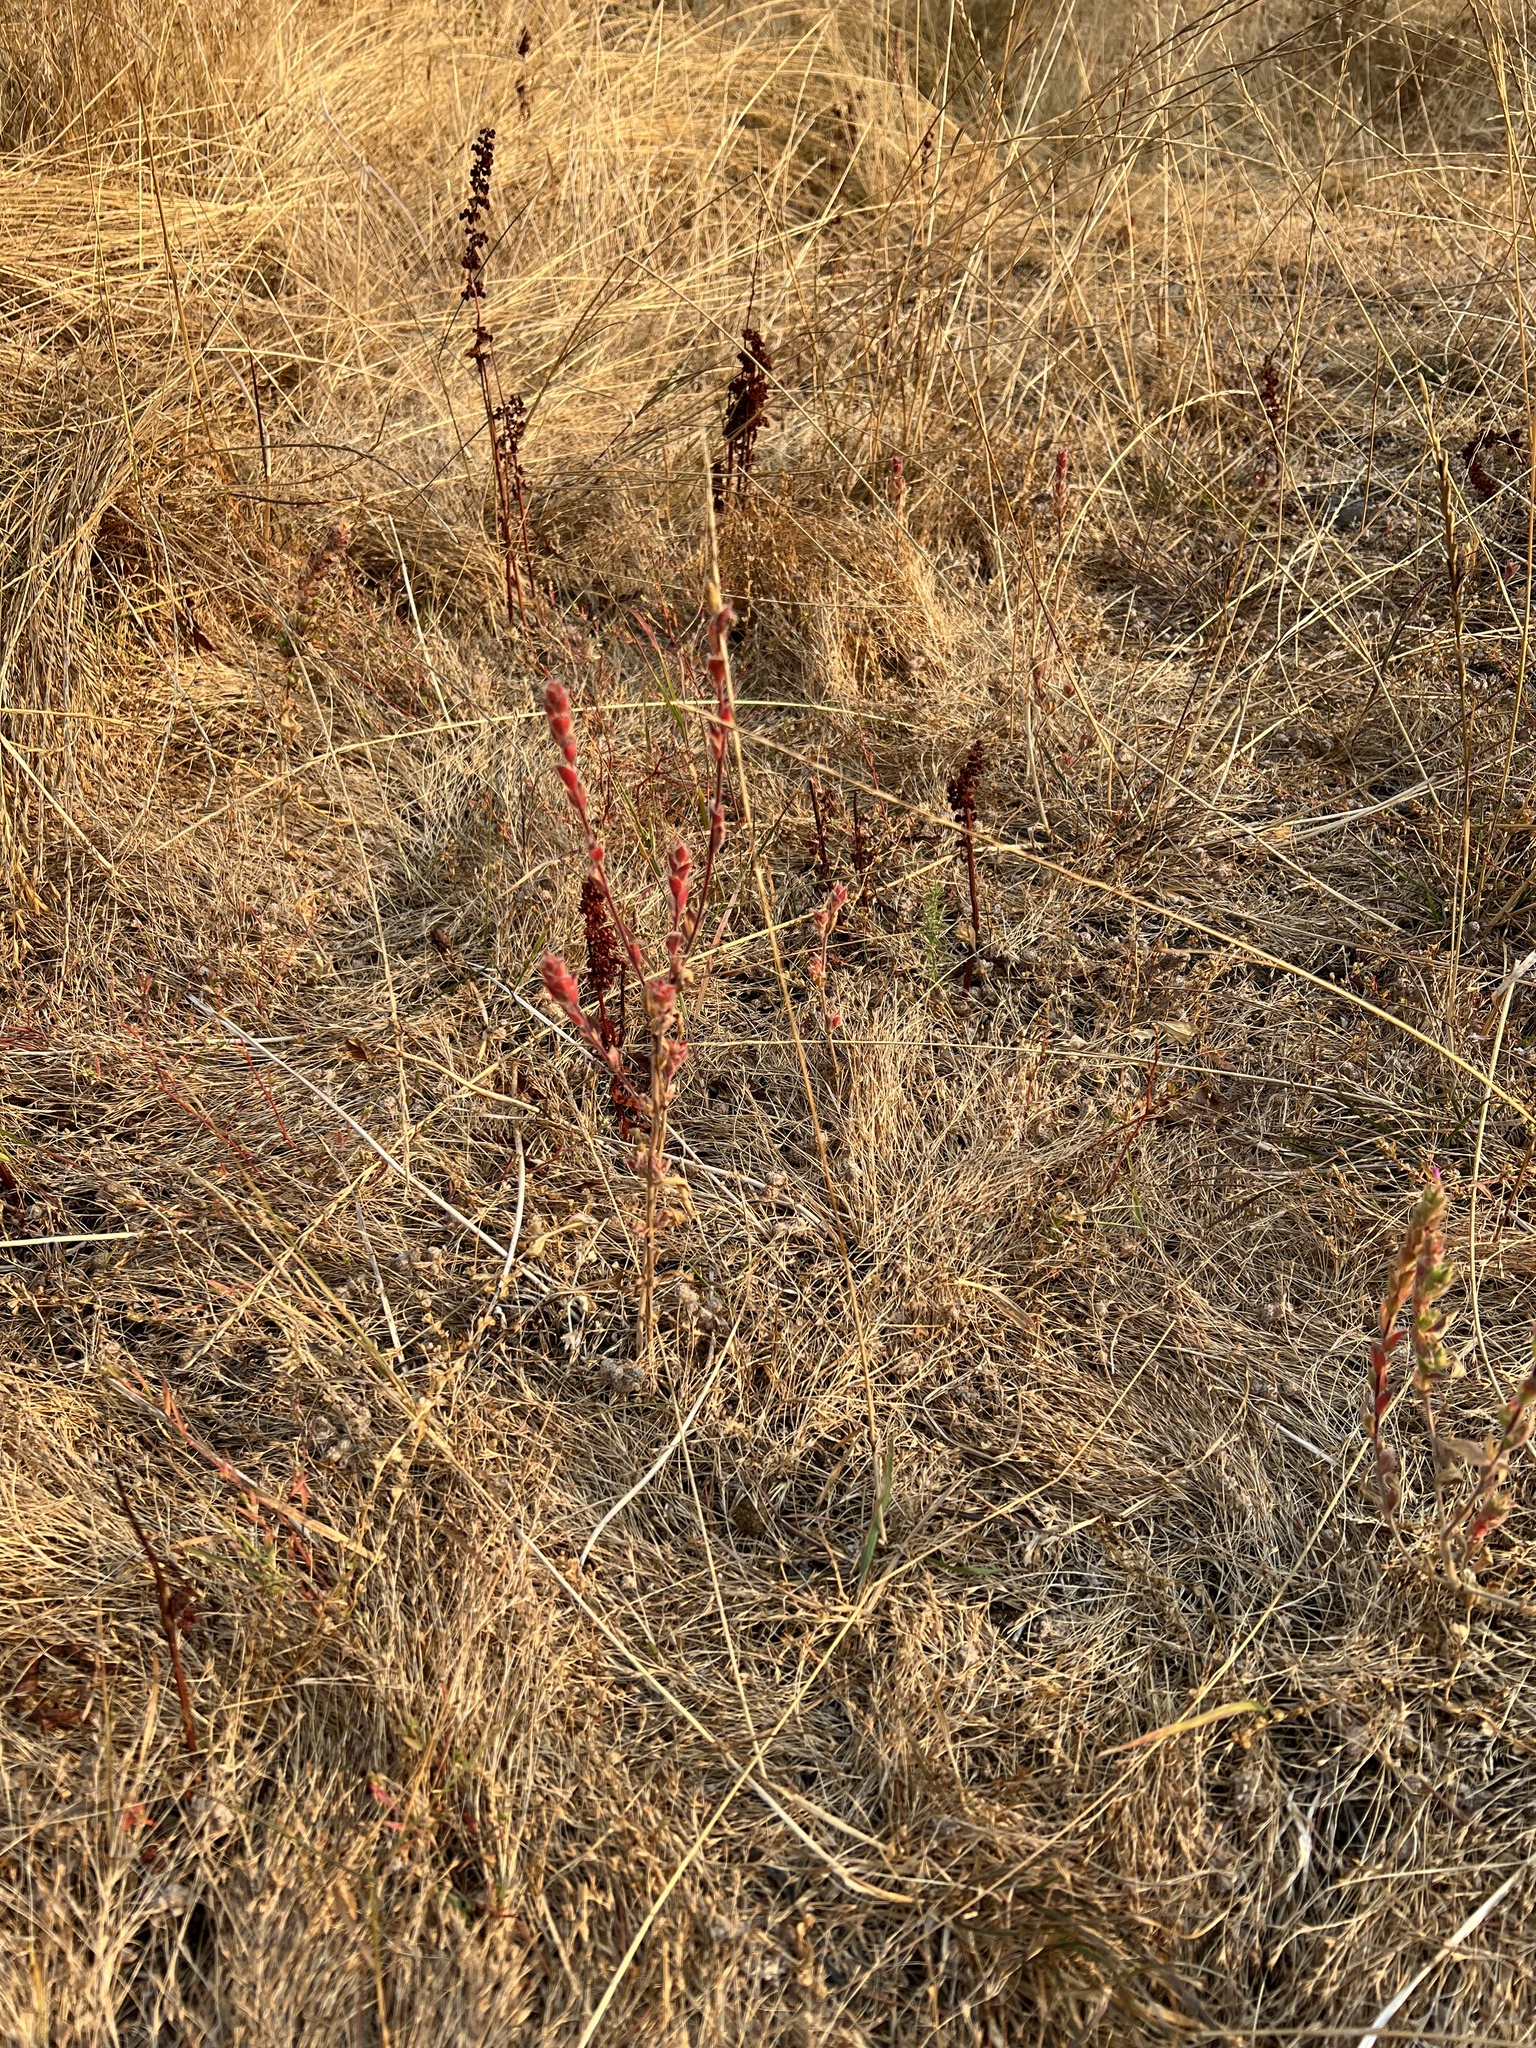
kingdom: Plantae
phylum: Tracheophyta
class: Magnoliopsida
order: Myrtales
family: Onagraceae
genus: Epilobium
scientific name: Epilobium densiflorum
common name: Dense spike-primrose
